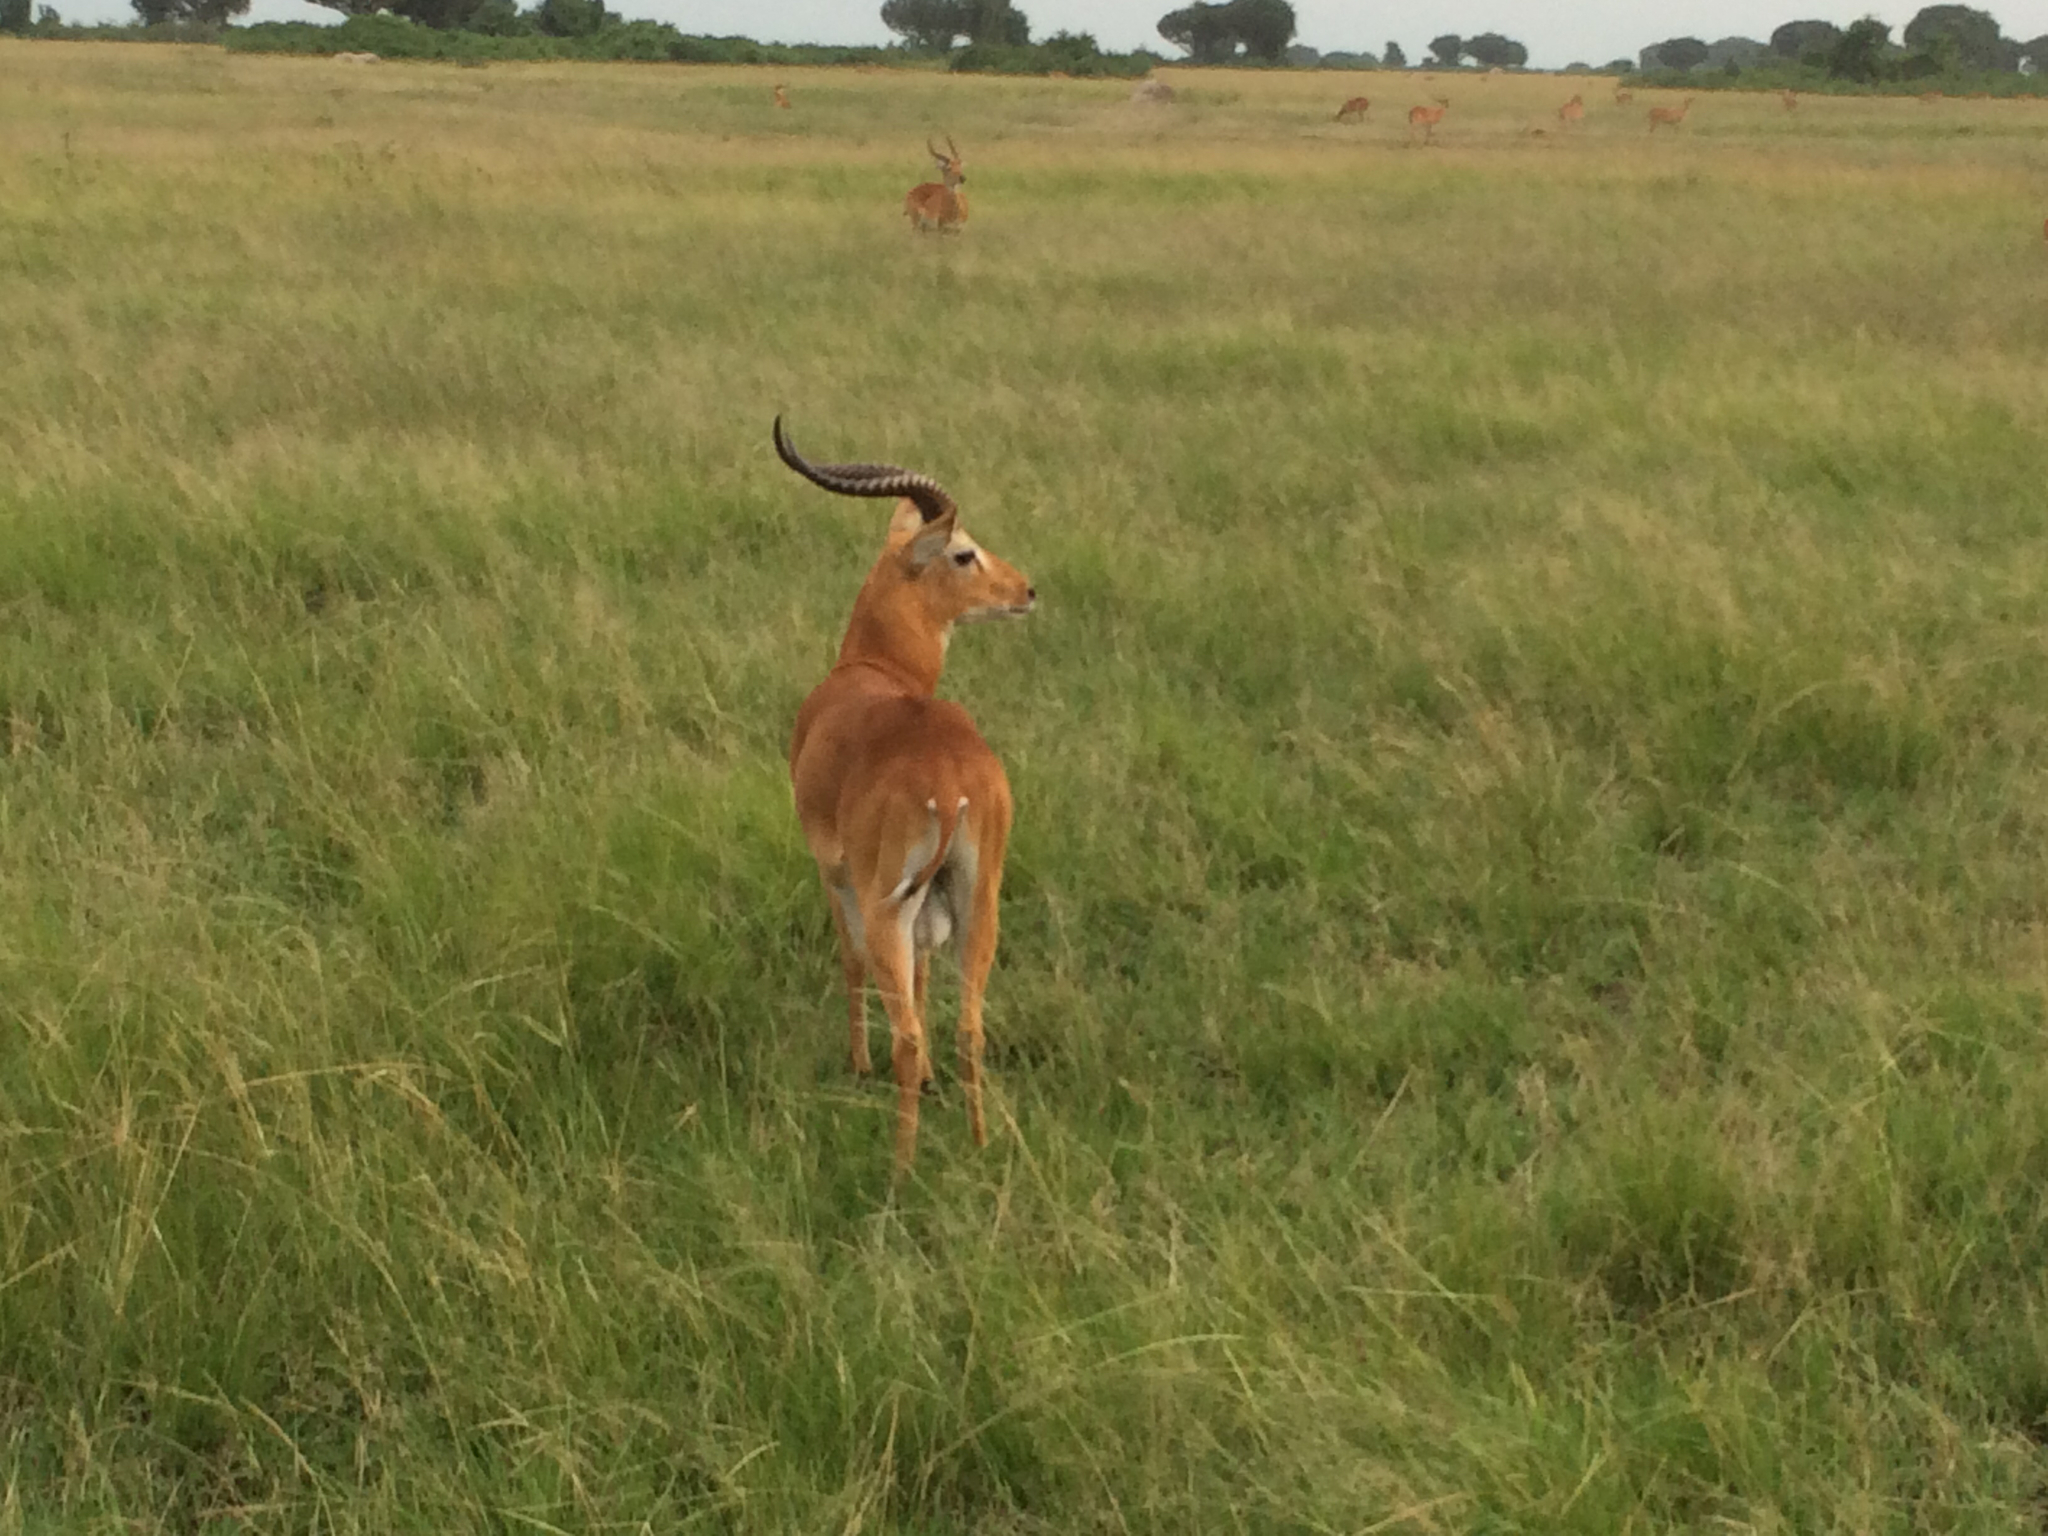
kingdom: Animalia
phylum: Chordata
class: Mammalia
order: Artiodactyla
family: Bovidae
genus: Kobus
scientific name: Kobus kob
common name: Kob
